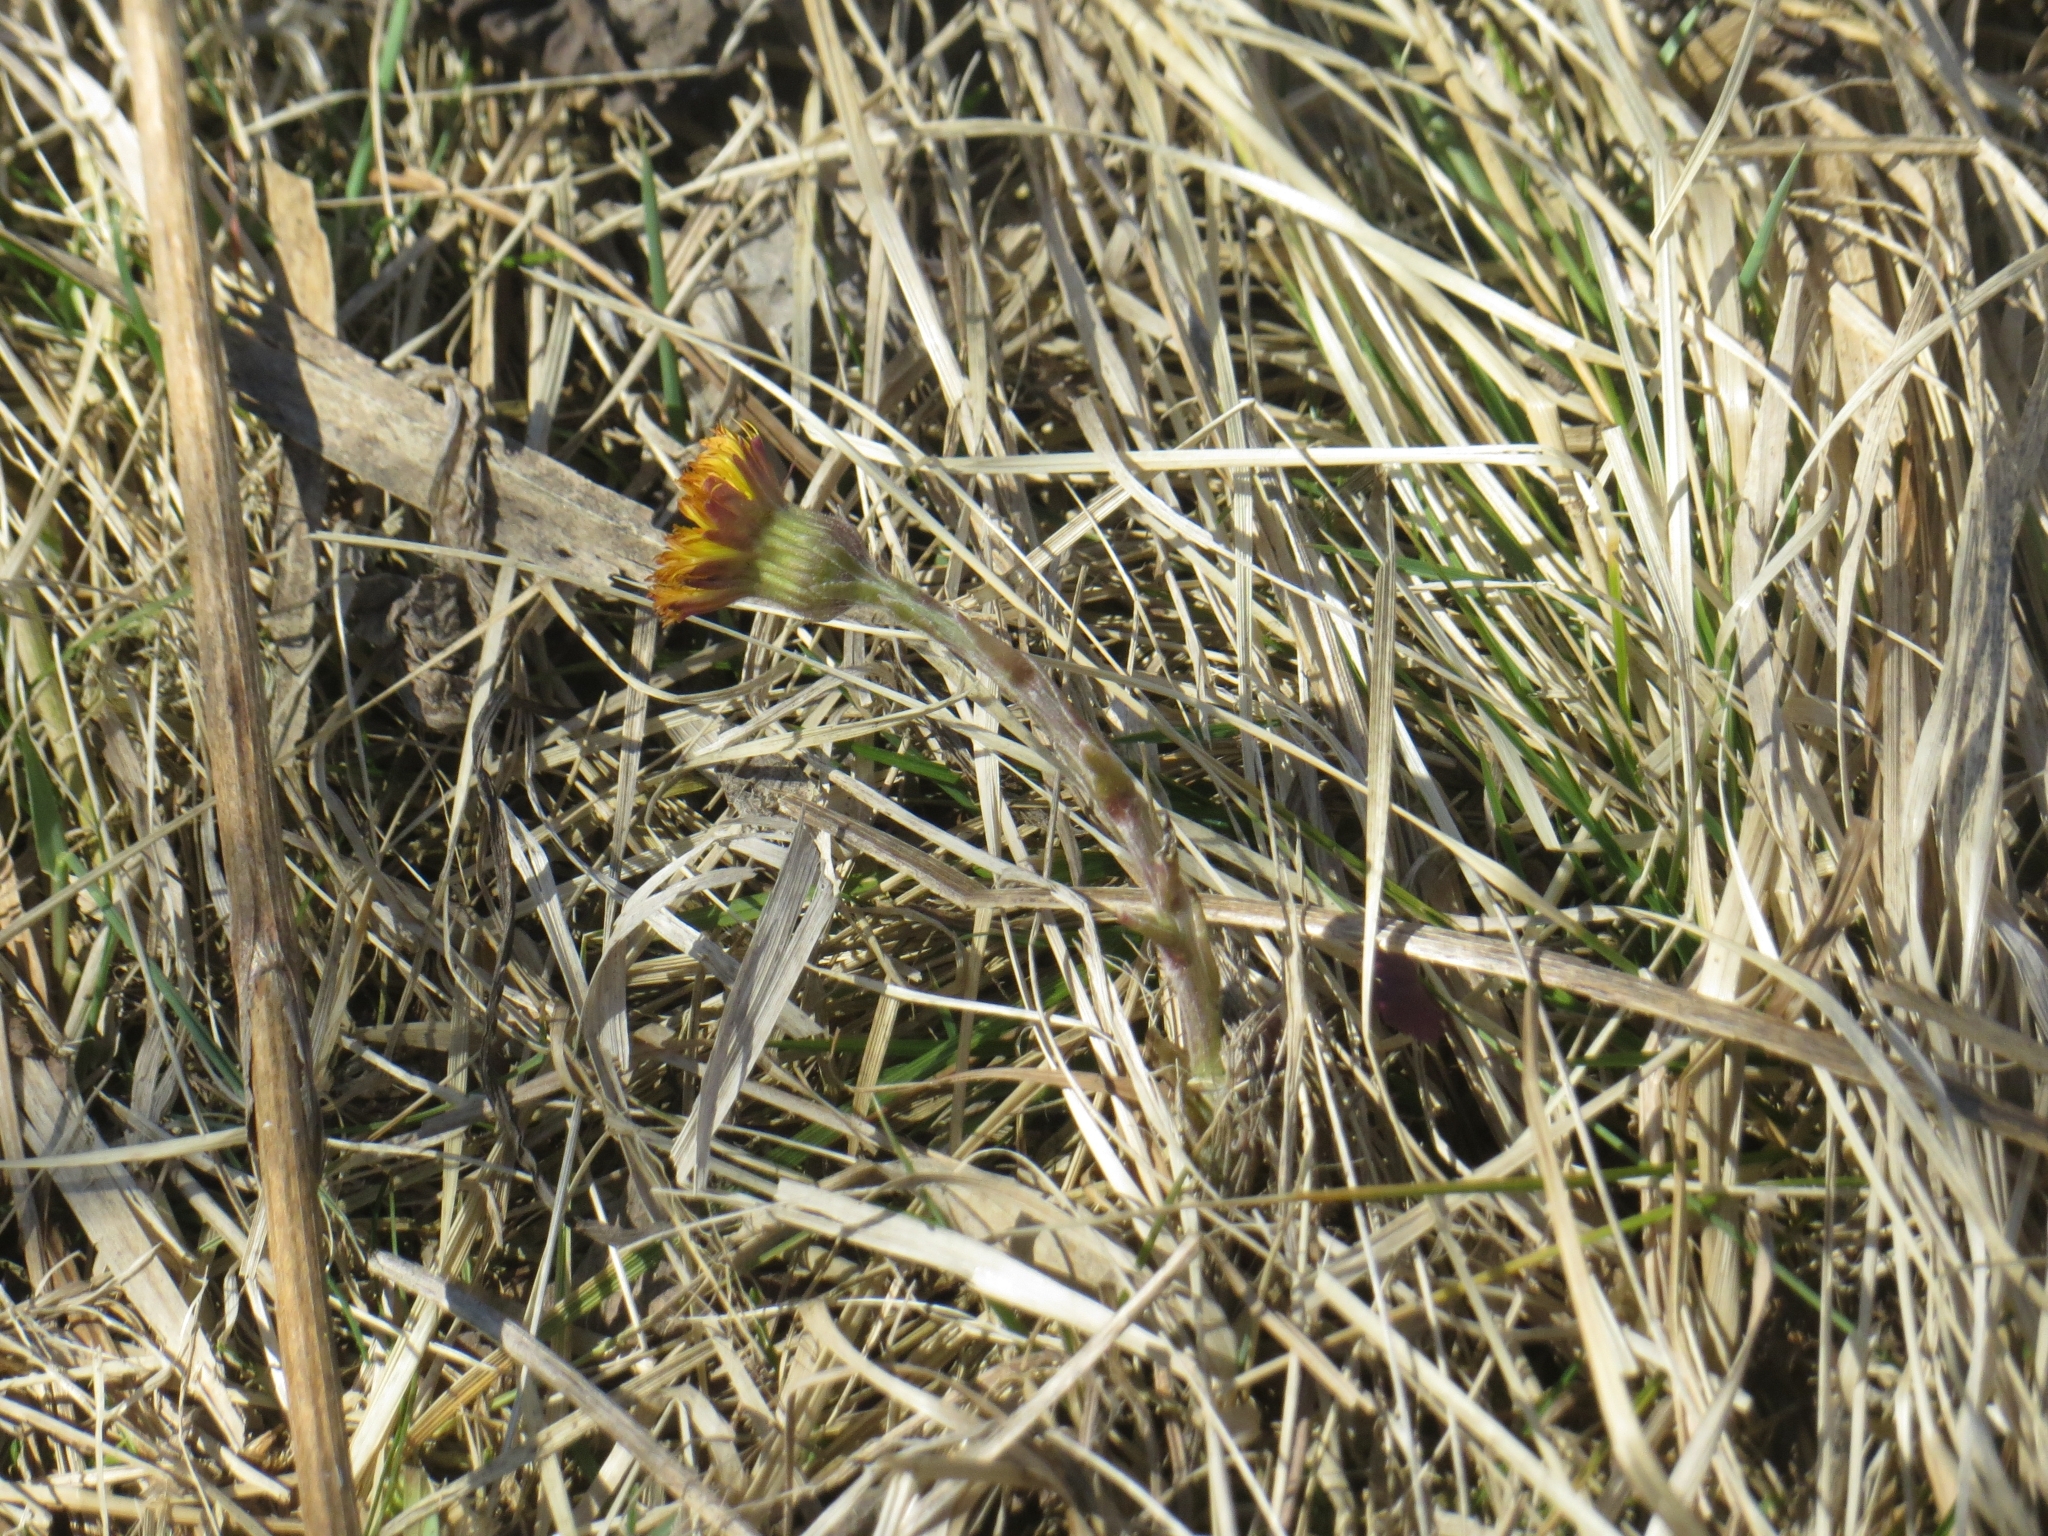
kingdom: Plantae
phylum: Tracheophyta
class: Magnoliopsida
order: Asterales
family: Asteraceae
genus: Tussilago
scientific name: Tussilago farfara
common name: Coltsfoot
